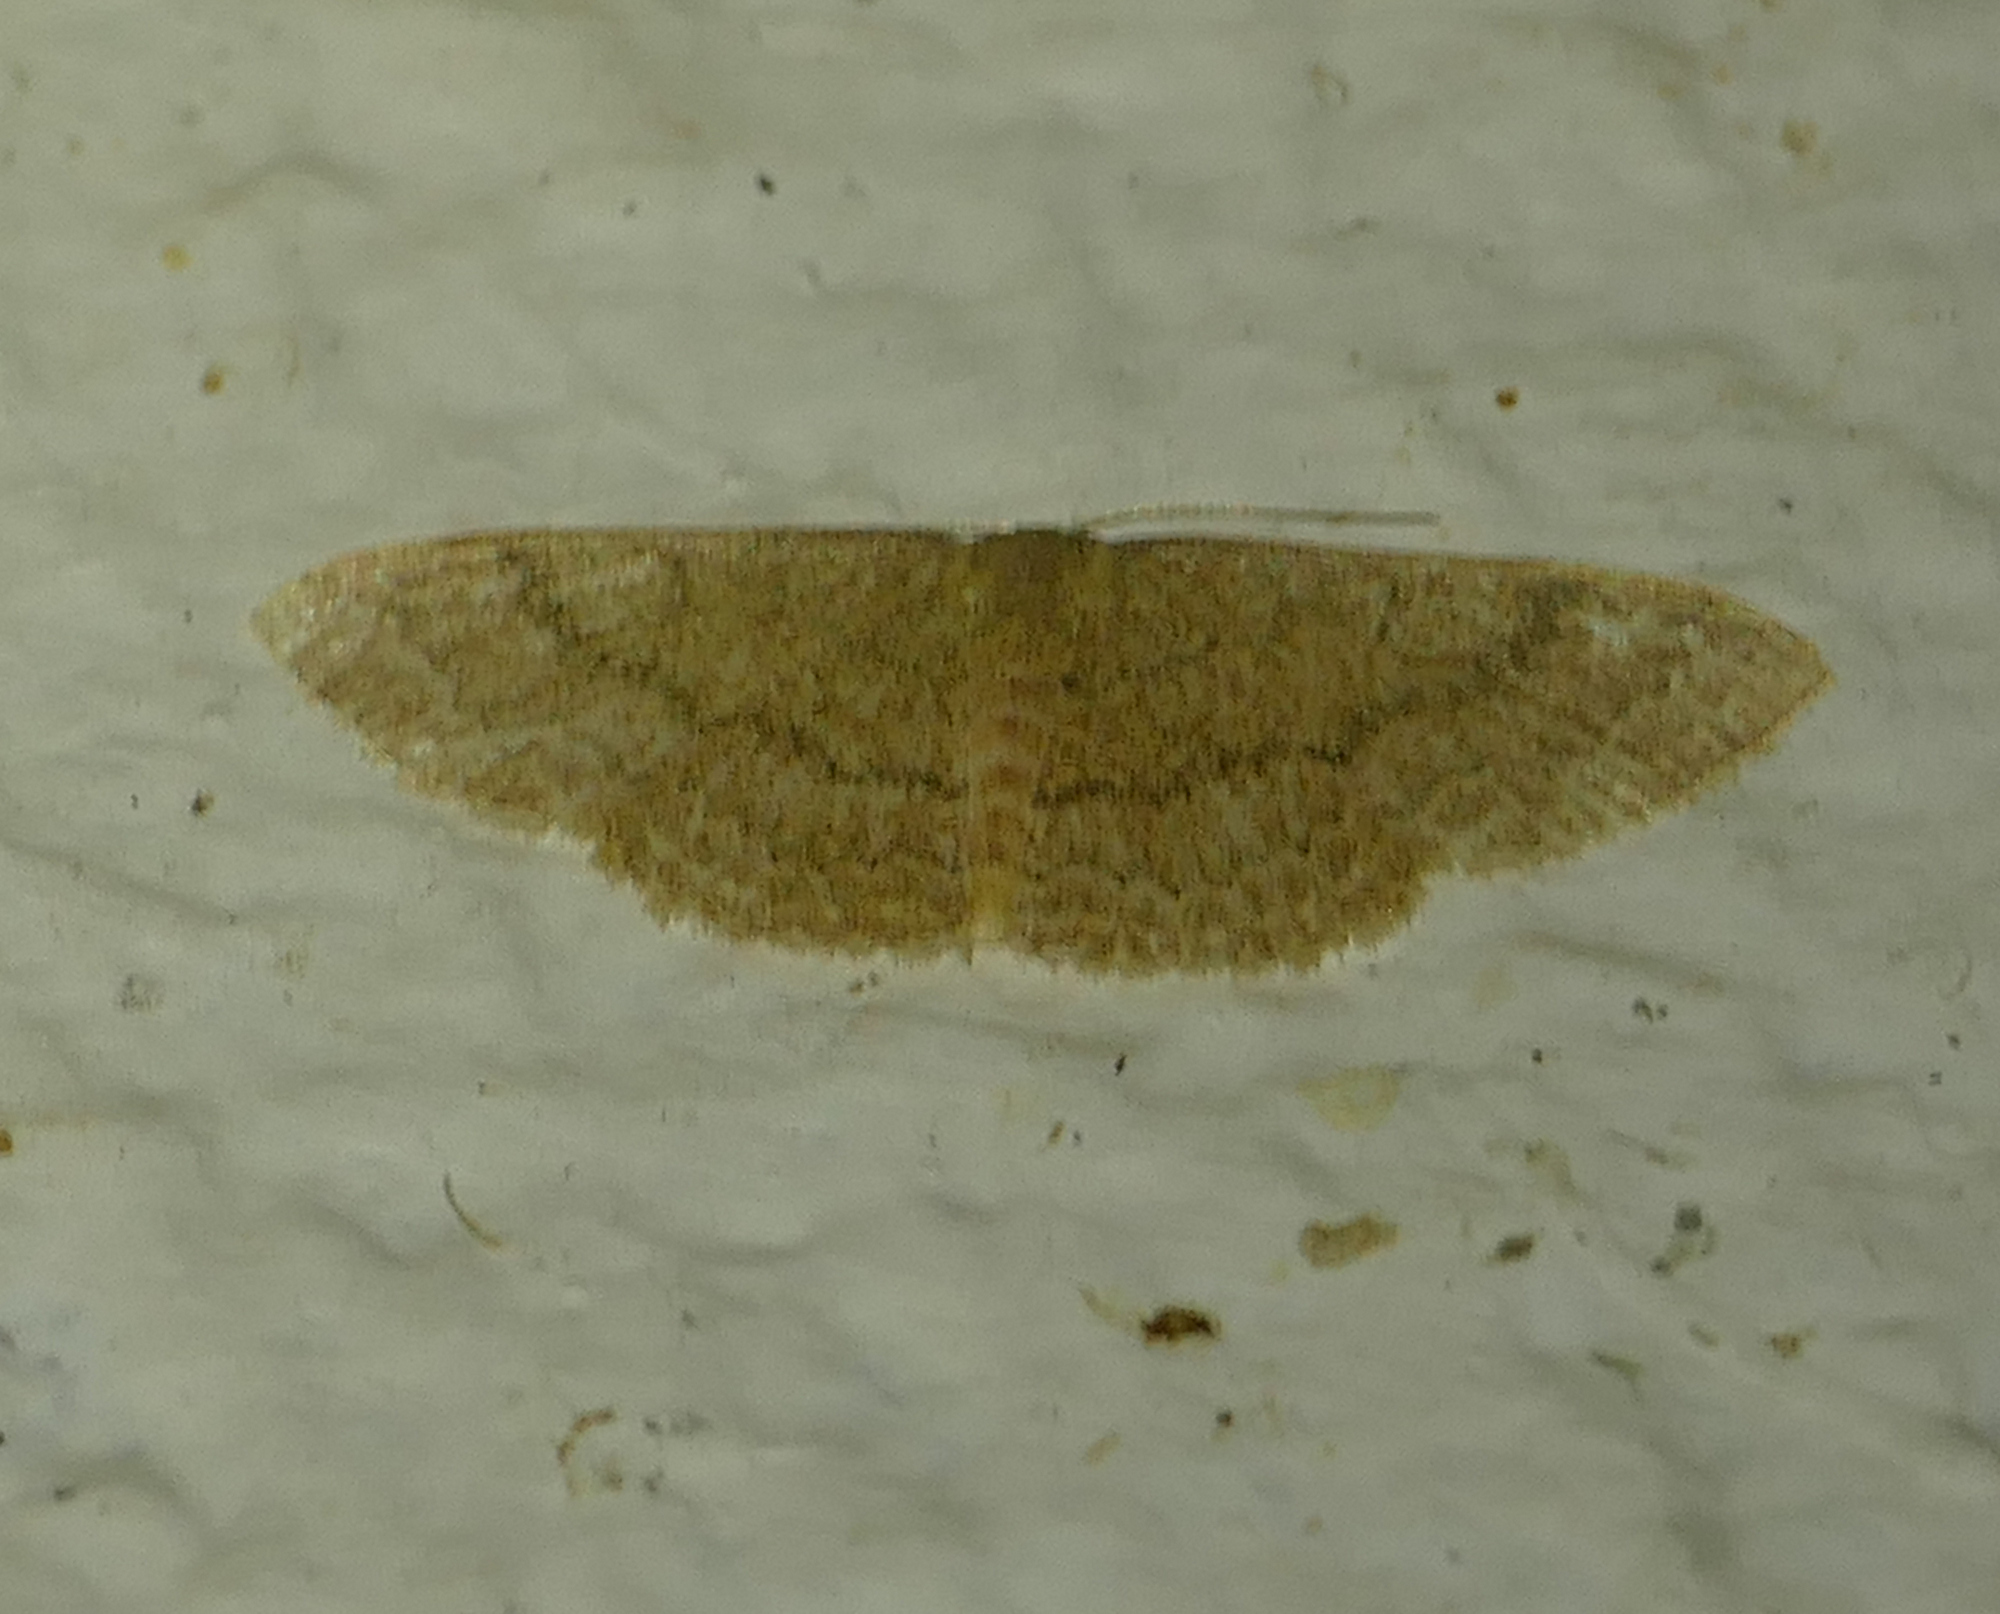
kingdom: Animalia
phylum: Arthropoda
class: Insecta
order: Lepidoptera
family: Geometridae
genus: Pleuroprucha
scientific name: Pleuroprucha insulsaria
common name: Common tan wave
